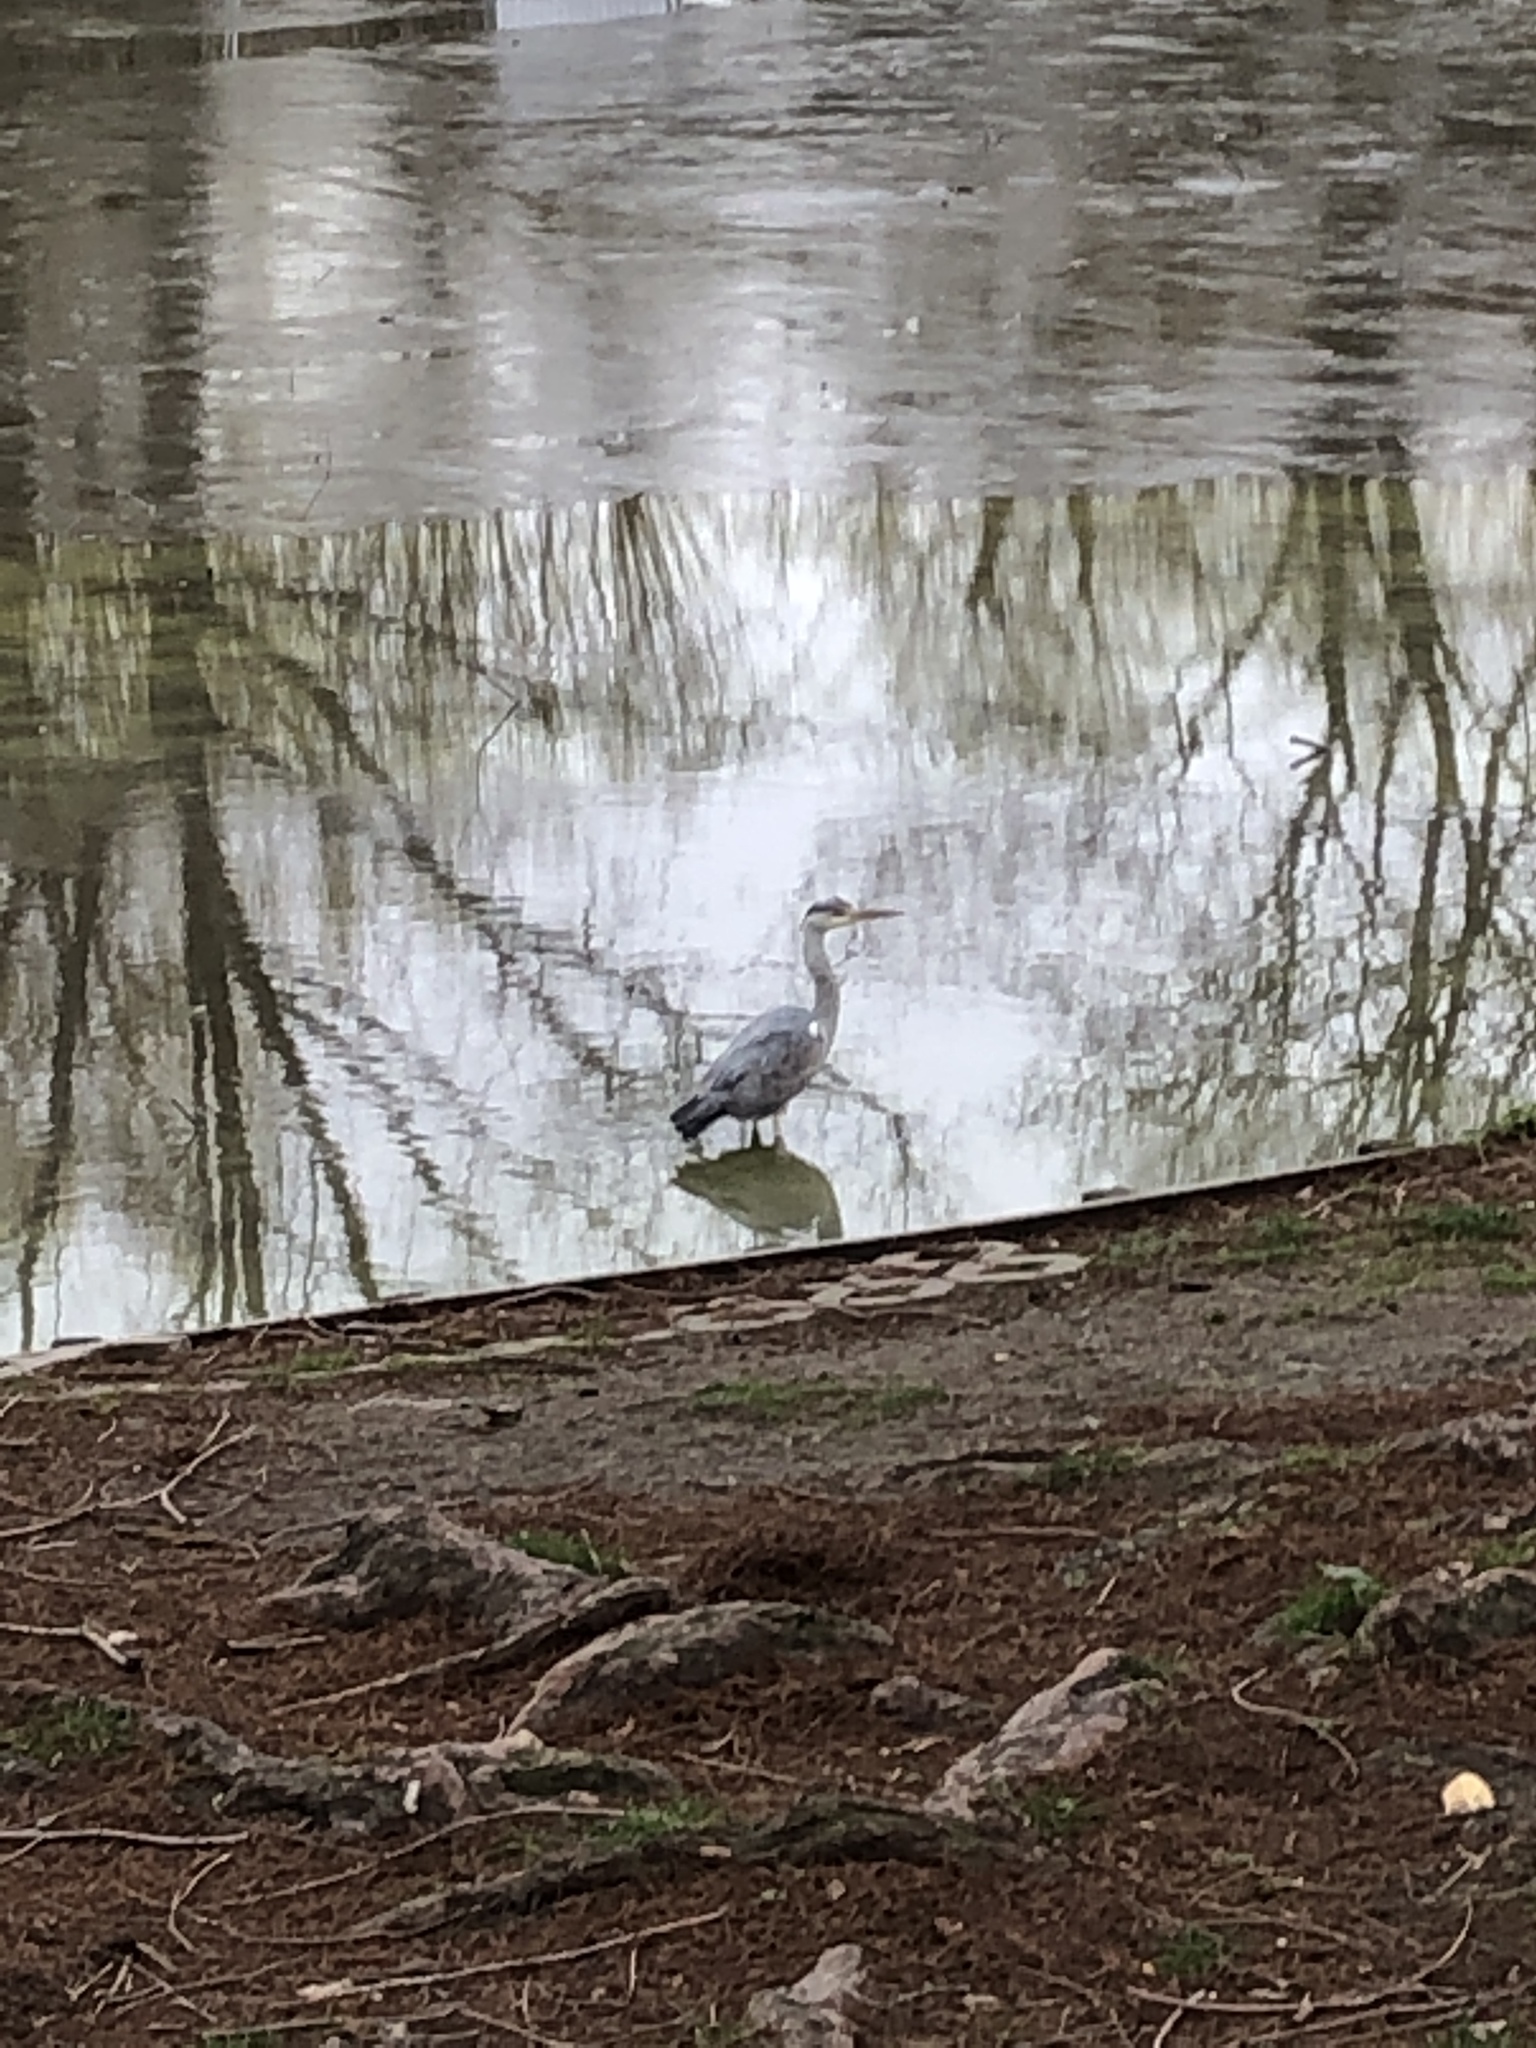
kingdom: Animalia
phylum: Chordata
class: Aves
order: Pelecaniformes
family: Ardeidae
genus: Ardea
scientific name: Ardea cinerea
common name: Grey heron
